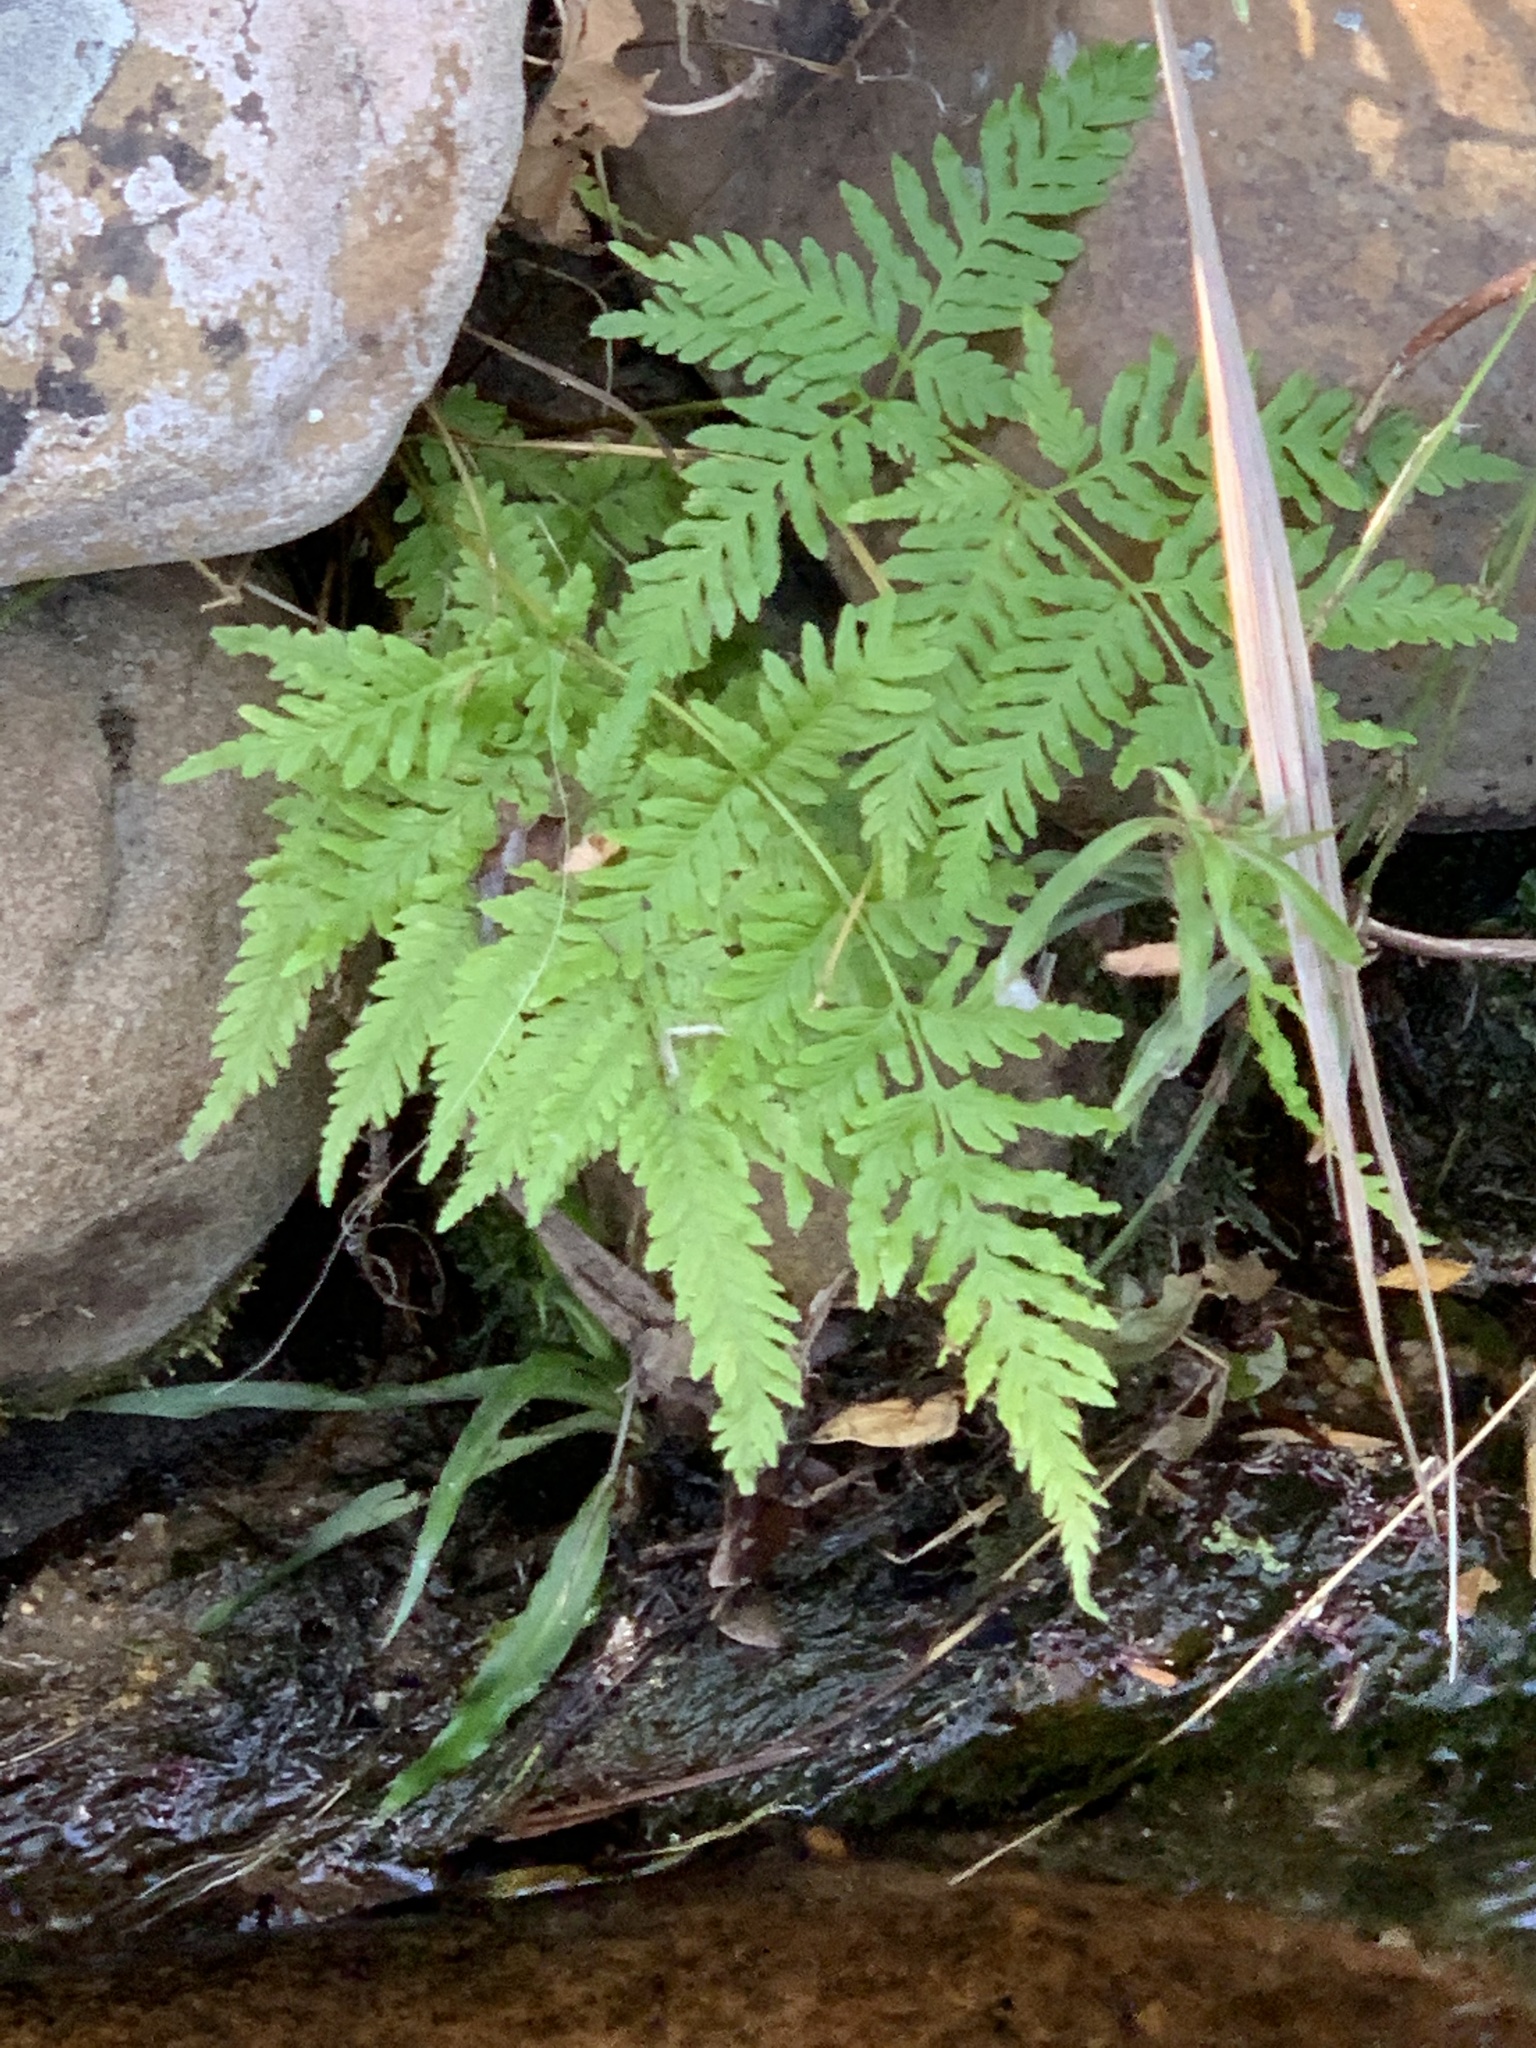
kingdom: Plantae
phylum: Tracheophyta
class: Polypodiopsida
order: Polypodiales
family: Pteridaceae
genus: Pteris
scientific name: Pteris tremula
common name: Australian brake
